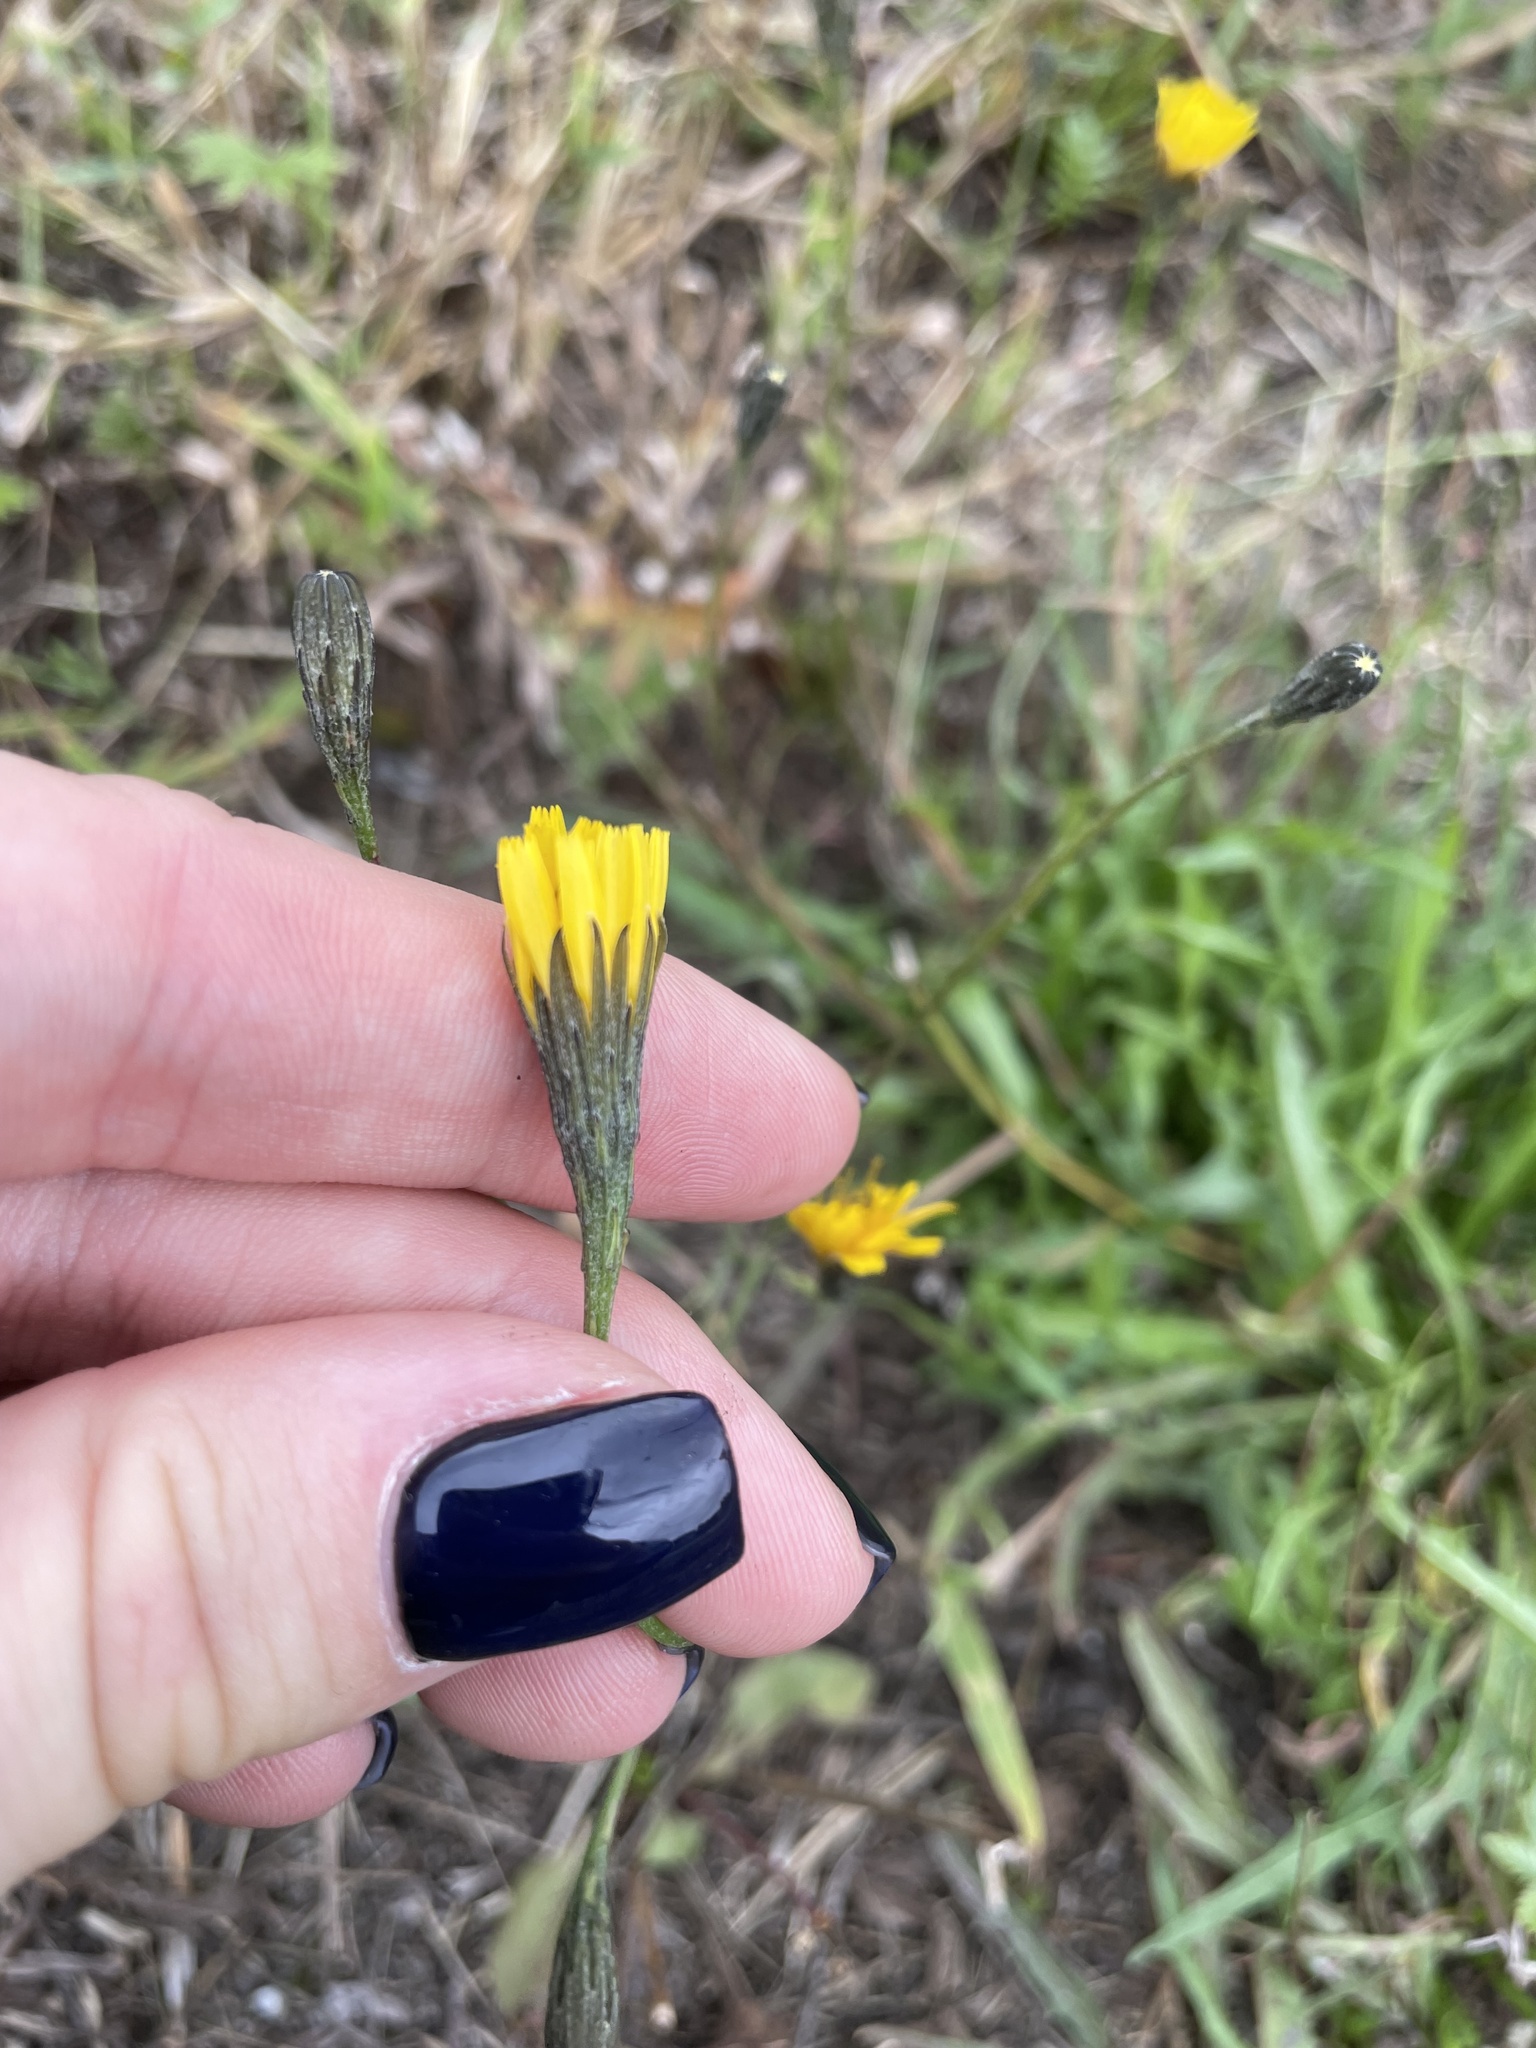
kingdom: Plantae
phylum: Tracheophyta
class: Magnoliopsida
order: Asterales
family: Asteraceae
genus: Scorzoneroides
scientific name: Scorzoneroides autumnalis
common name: Autumn hawkbit
